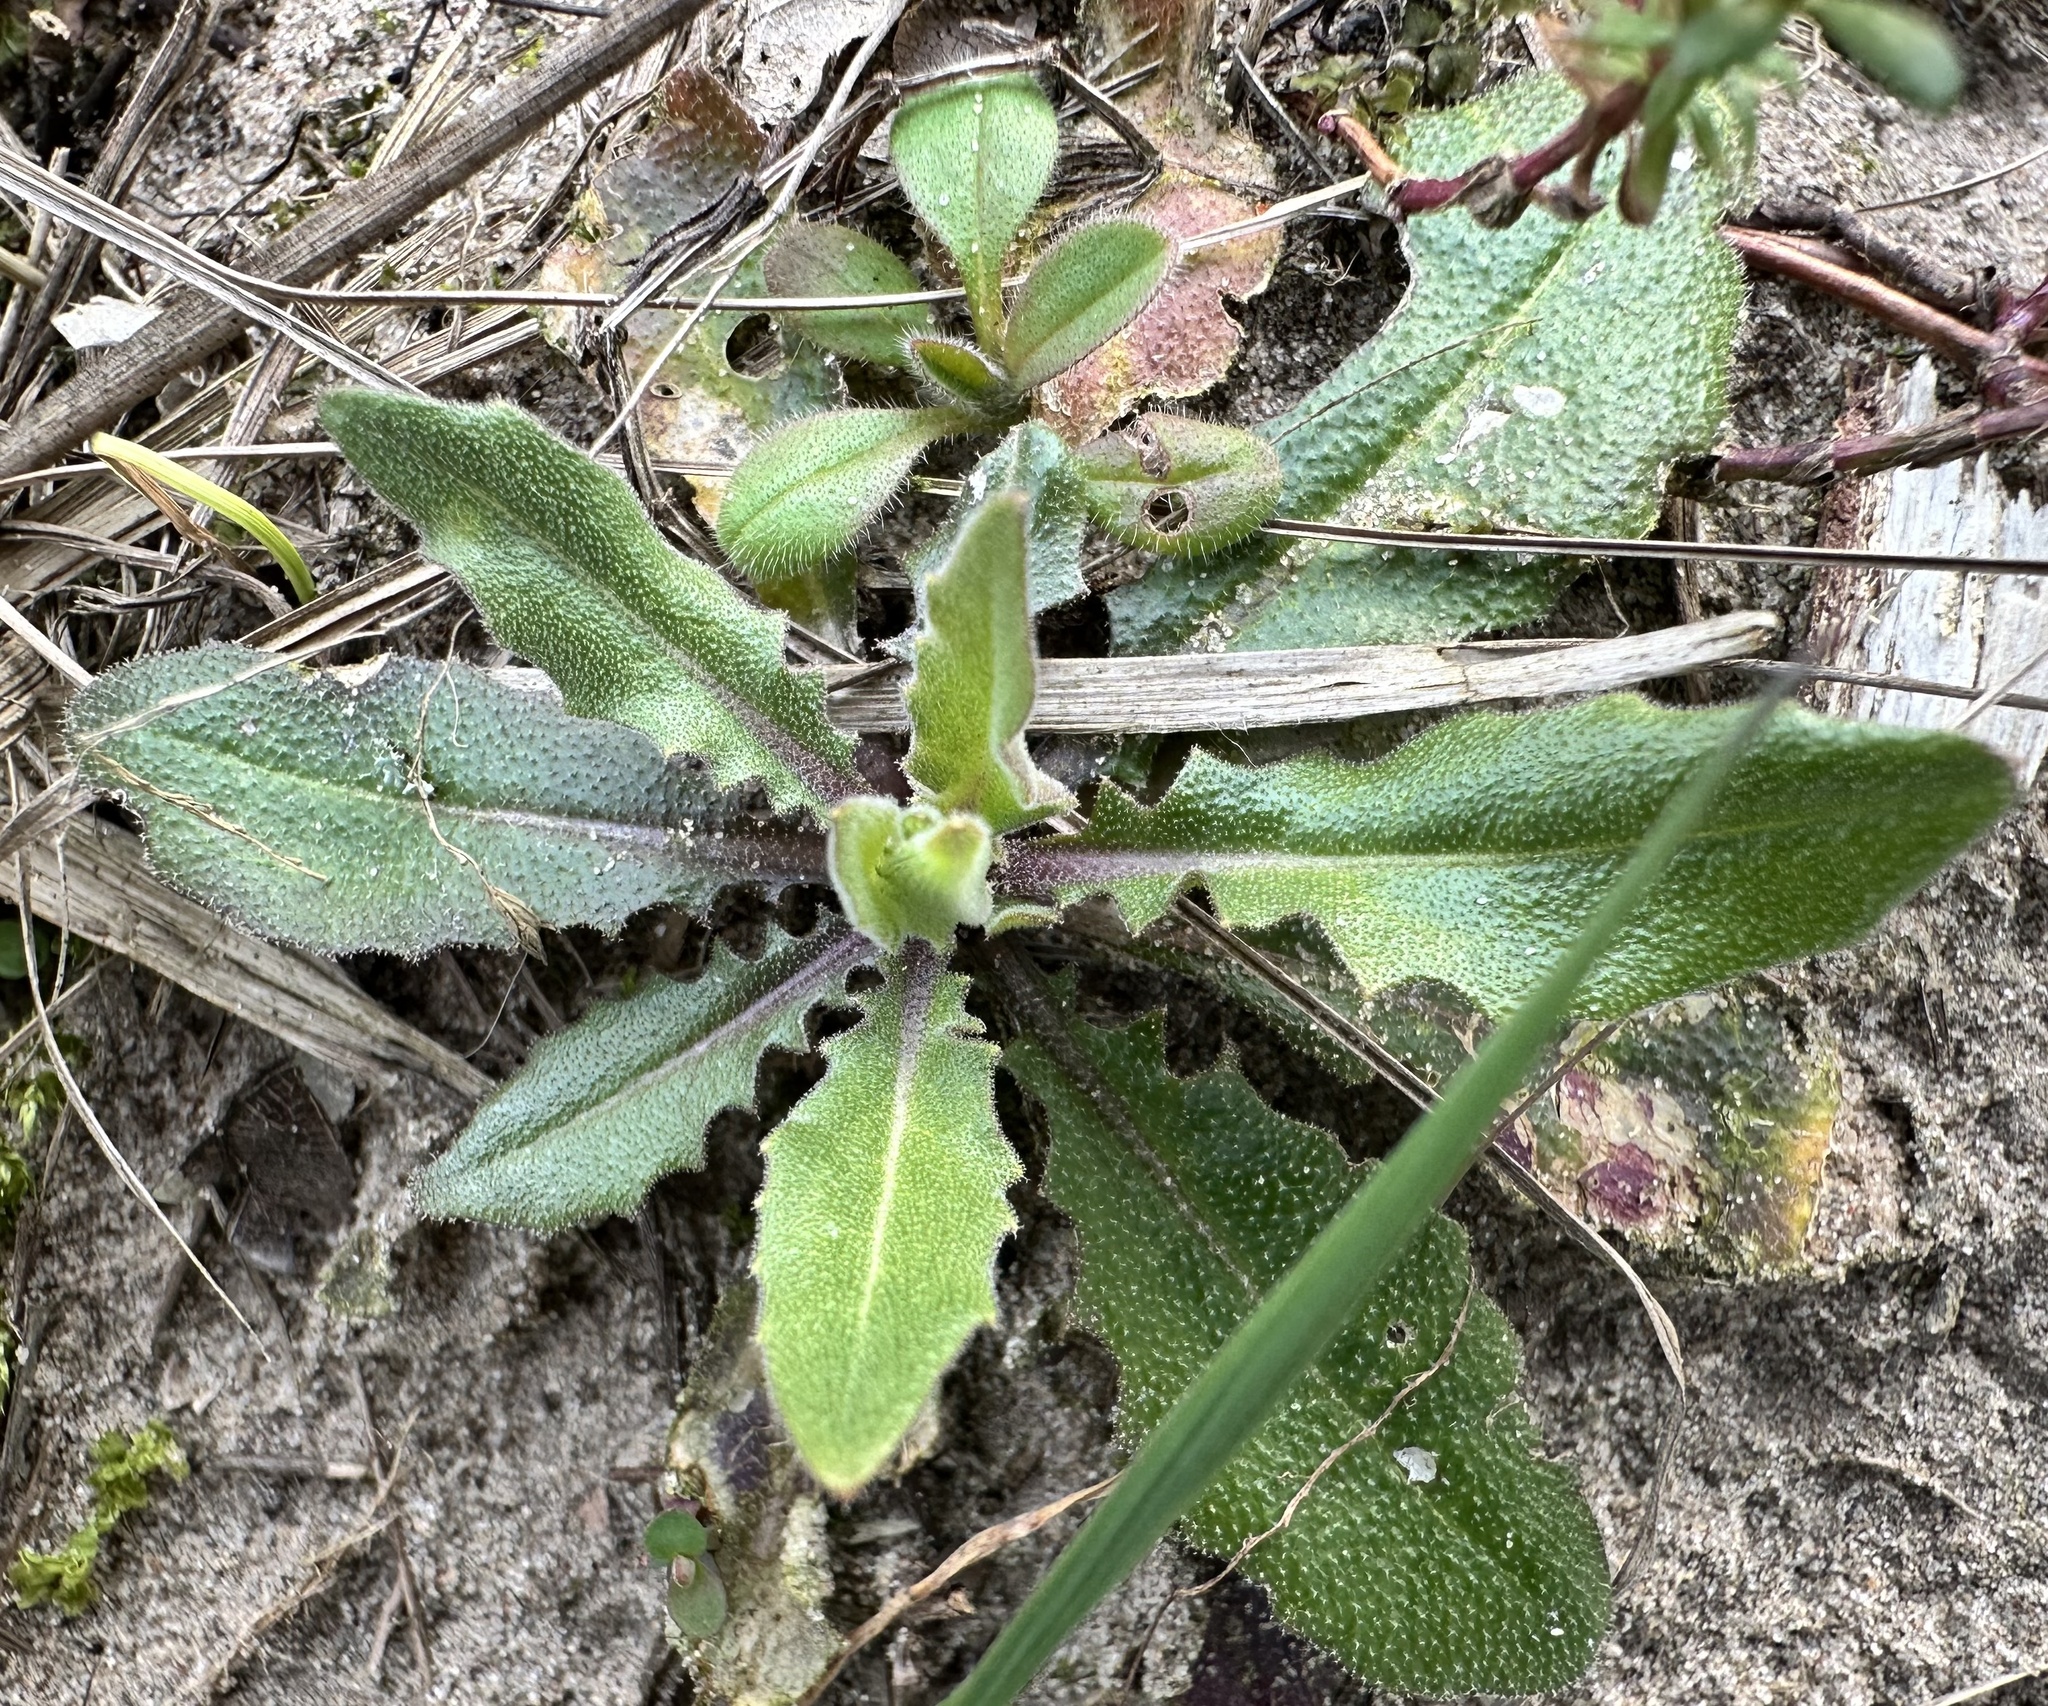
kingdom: Plantae
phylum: Tracheophyta
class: Magnoliopsida
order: Asterales
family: Asteraceae
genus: Picris
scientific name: Picris hieracioides
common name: Hawkweed oxtongue
